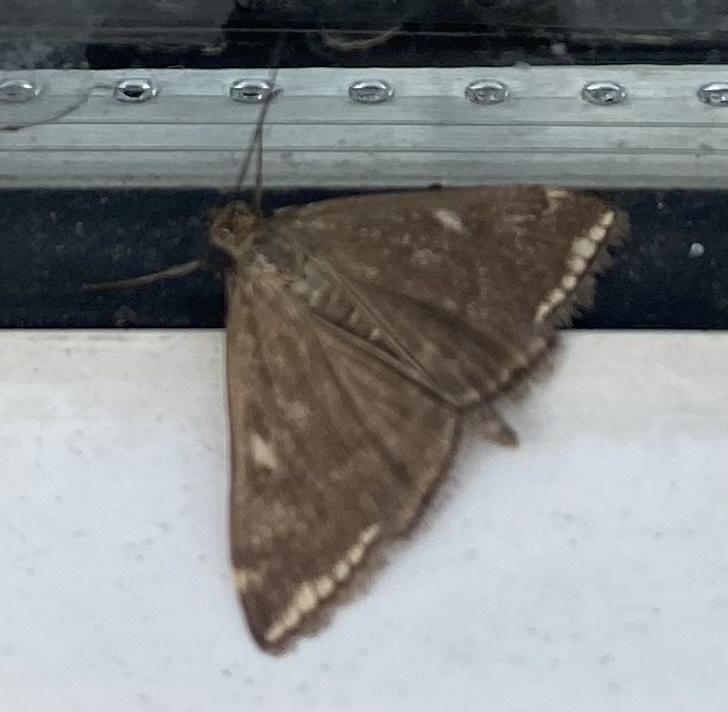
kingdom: Animalia
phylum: Arthropoda
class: Insecta
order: Lepidoptera
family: Crambidae
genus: Loxostege
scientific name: Loxostege sticticalis
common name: Crambid moth
